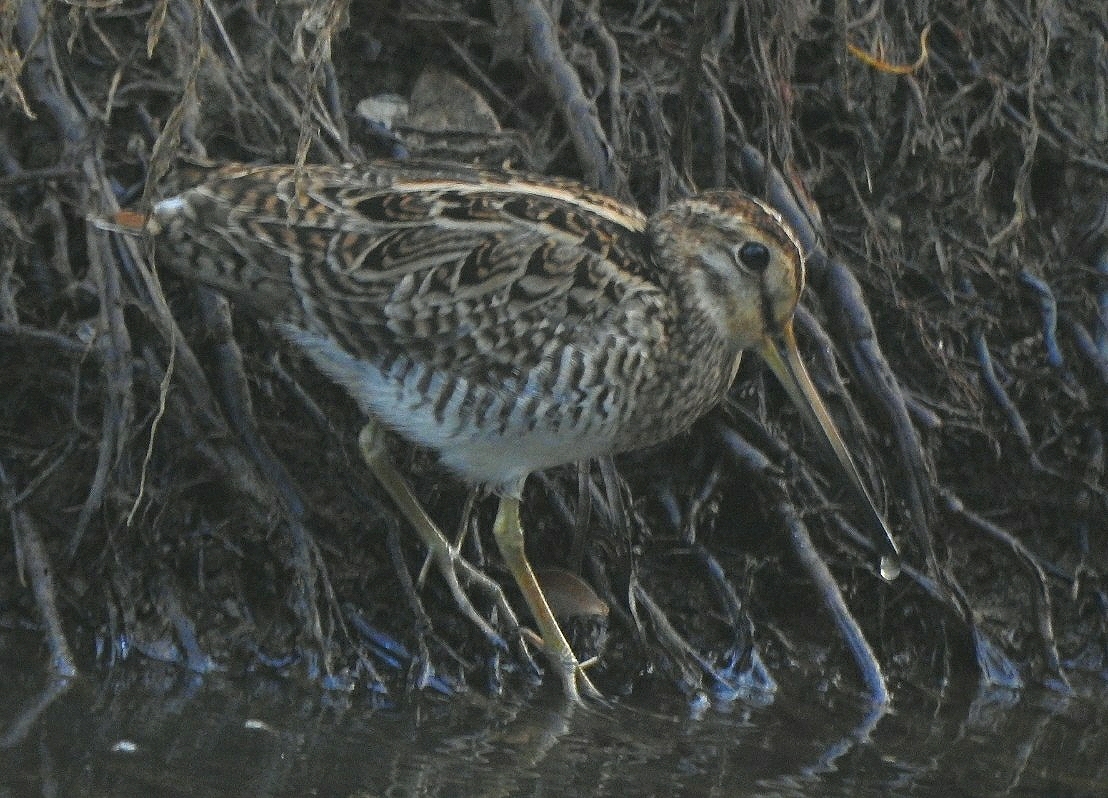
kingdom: Animalia
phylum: Chordata
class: Aves
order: Charadriiformes
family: Scolopacidae
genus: Gallinago
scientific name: Gallinago stenura
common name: Pin-tailed snipe
